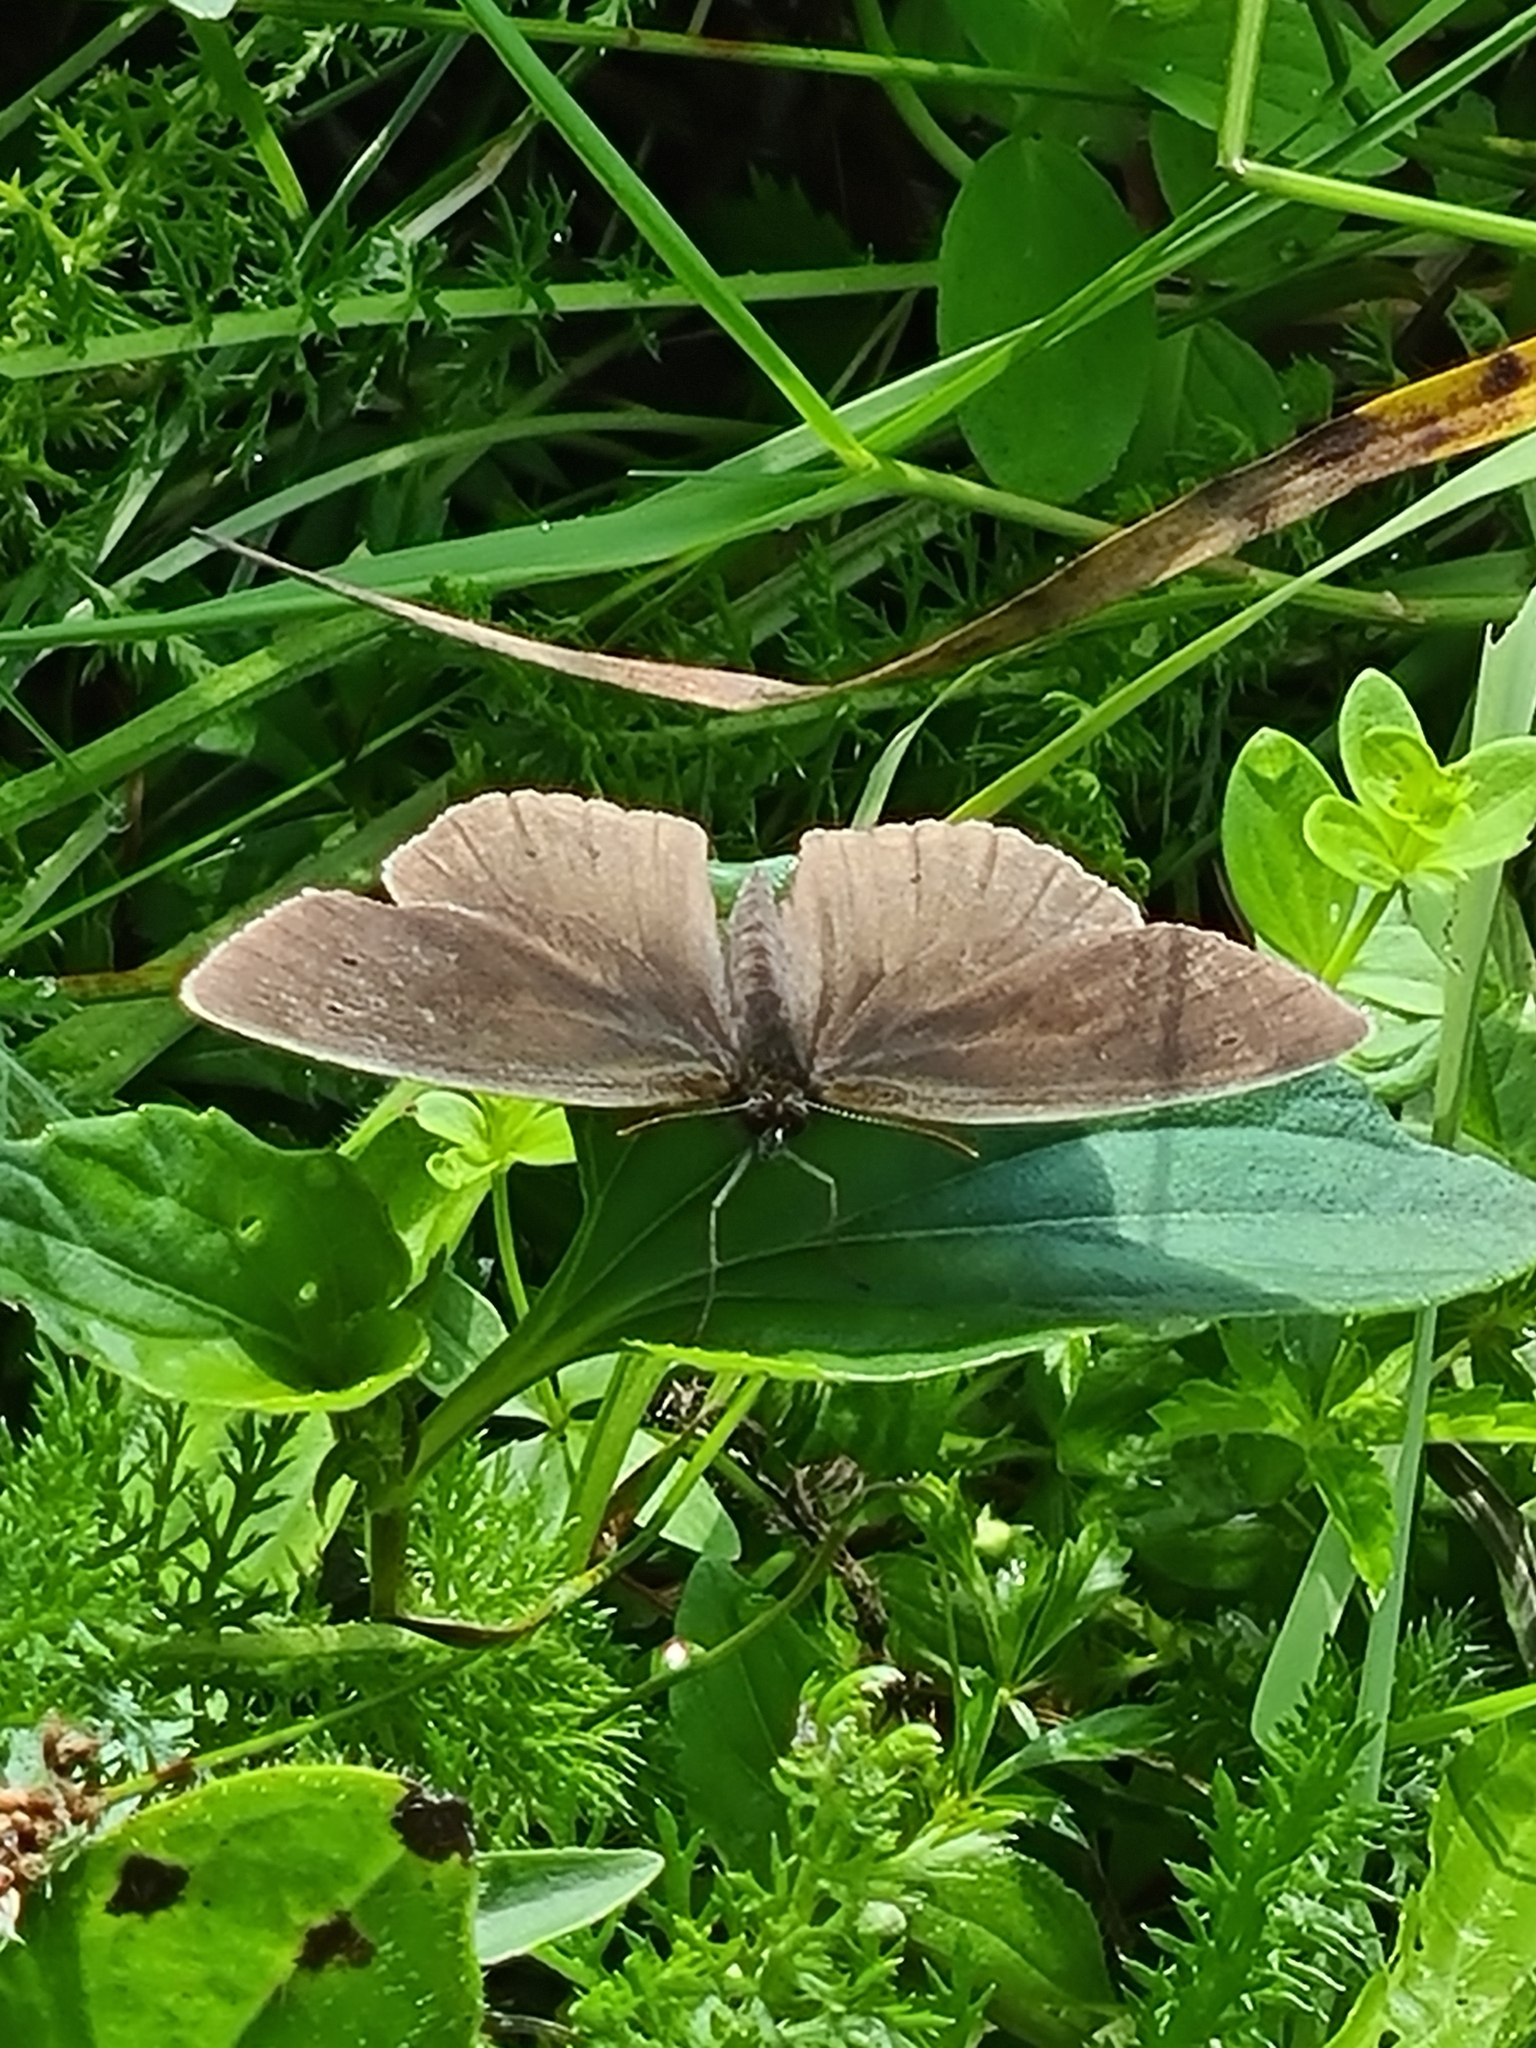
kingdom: Animalia
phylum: Arthropoda
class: Insecta
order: Lepidoptera
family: Nymphalidae
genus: Aphantopus
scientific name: Aphantopus hyperantus
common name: Ringlet
